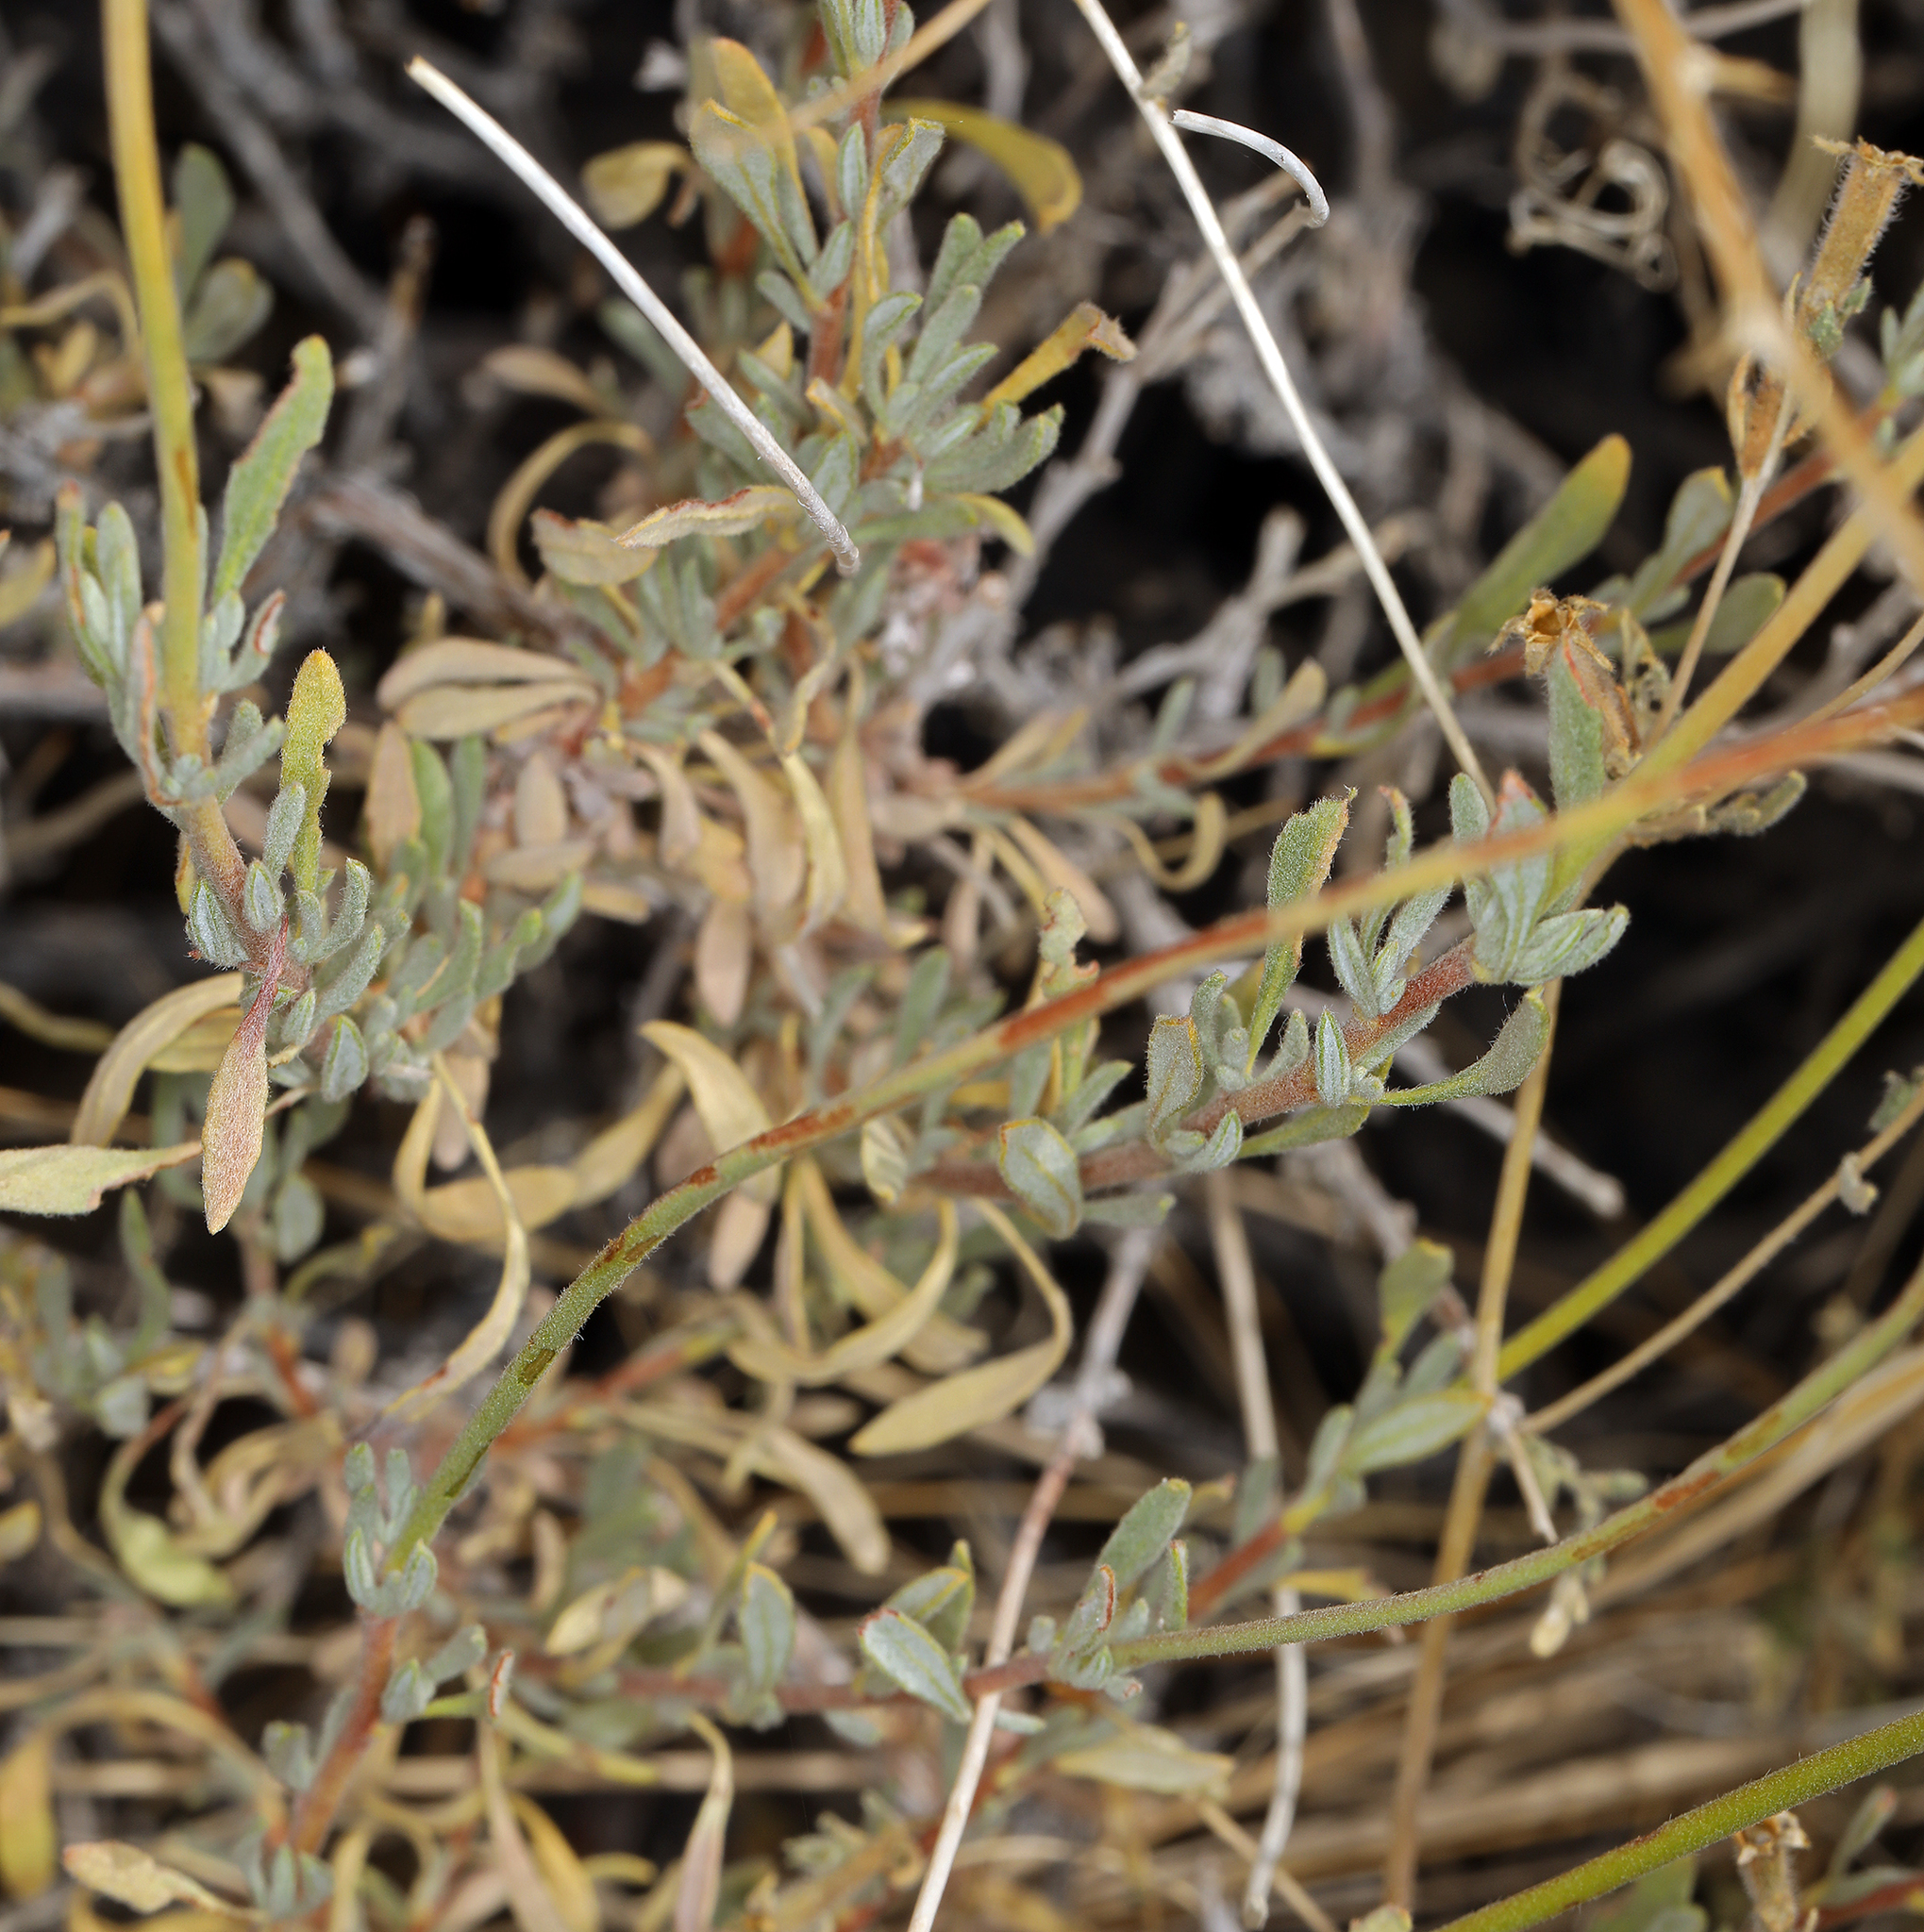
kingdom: Plantae
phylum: Tracheophyta
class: Magnoliopsida
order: Caryophyllales
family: Polygonaceae
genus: Eriogonum
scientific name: Eriogonum fasciculatum
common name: California wild buckwheat
